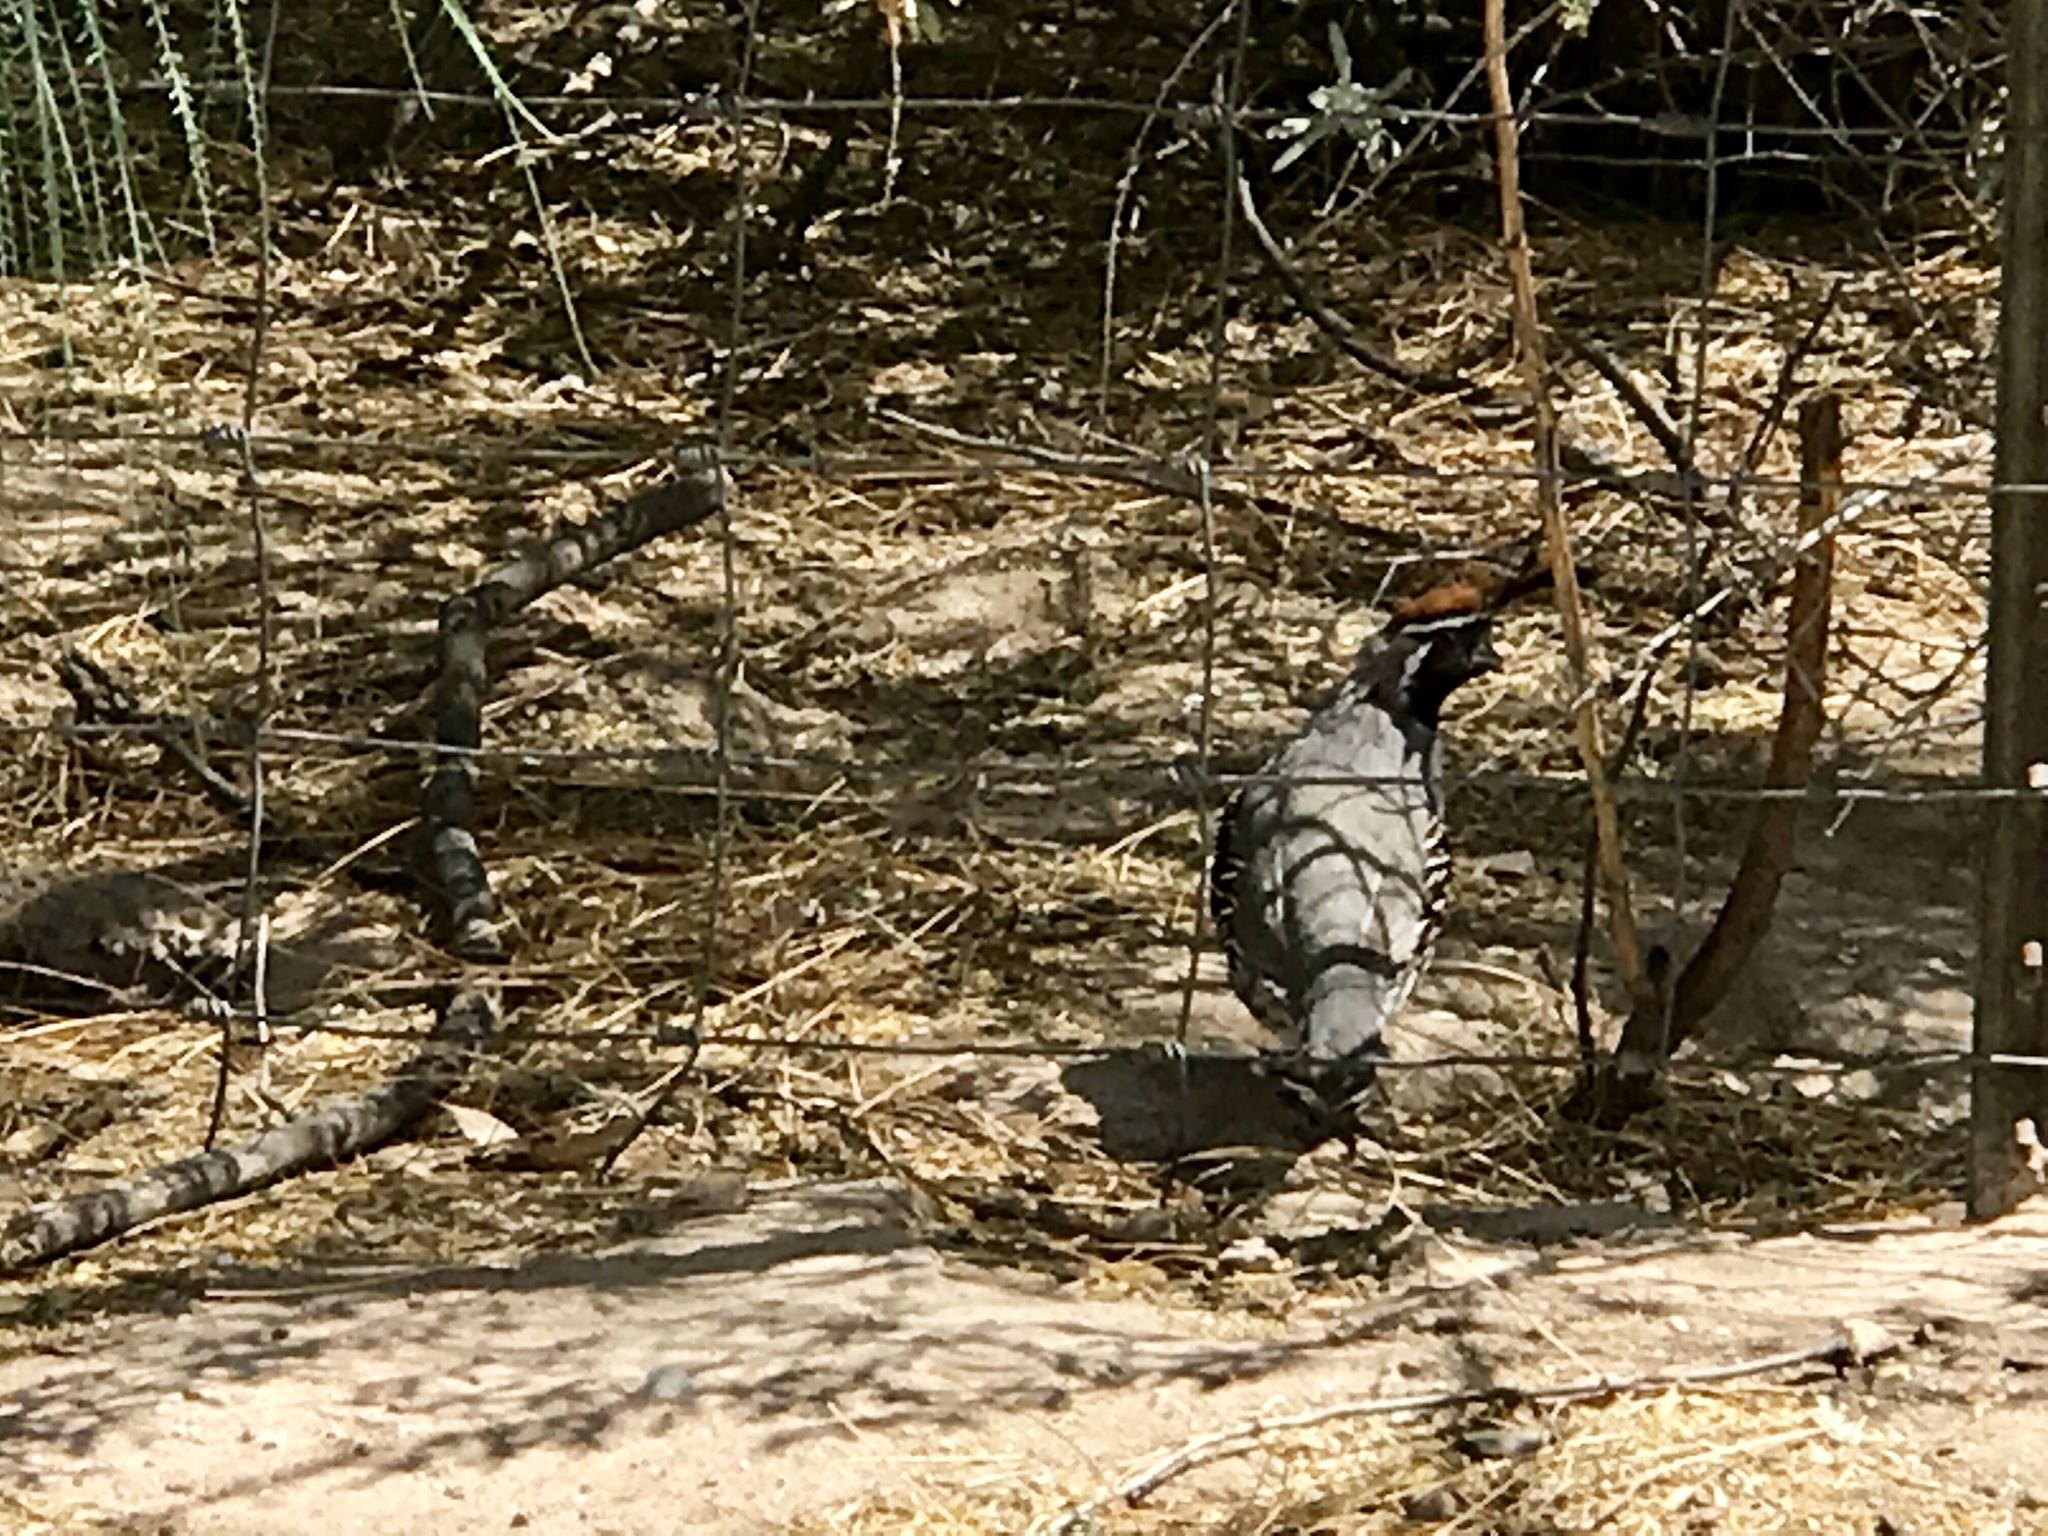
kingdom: Animalia
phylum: Chordata
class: Aves
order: Galliformes
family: Odontophoridae
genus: Callipepla
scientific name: Callipepla gambelii
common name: Gambel's quail
